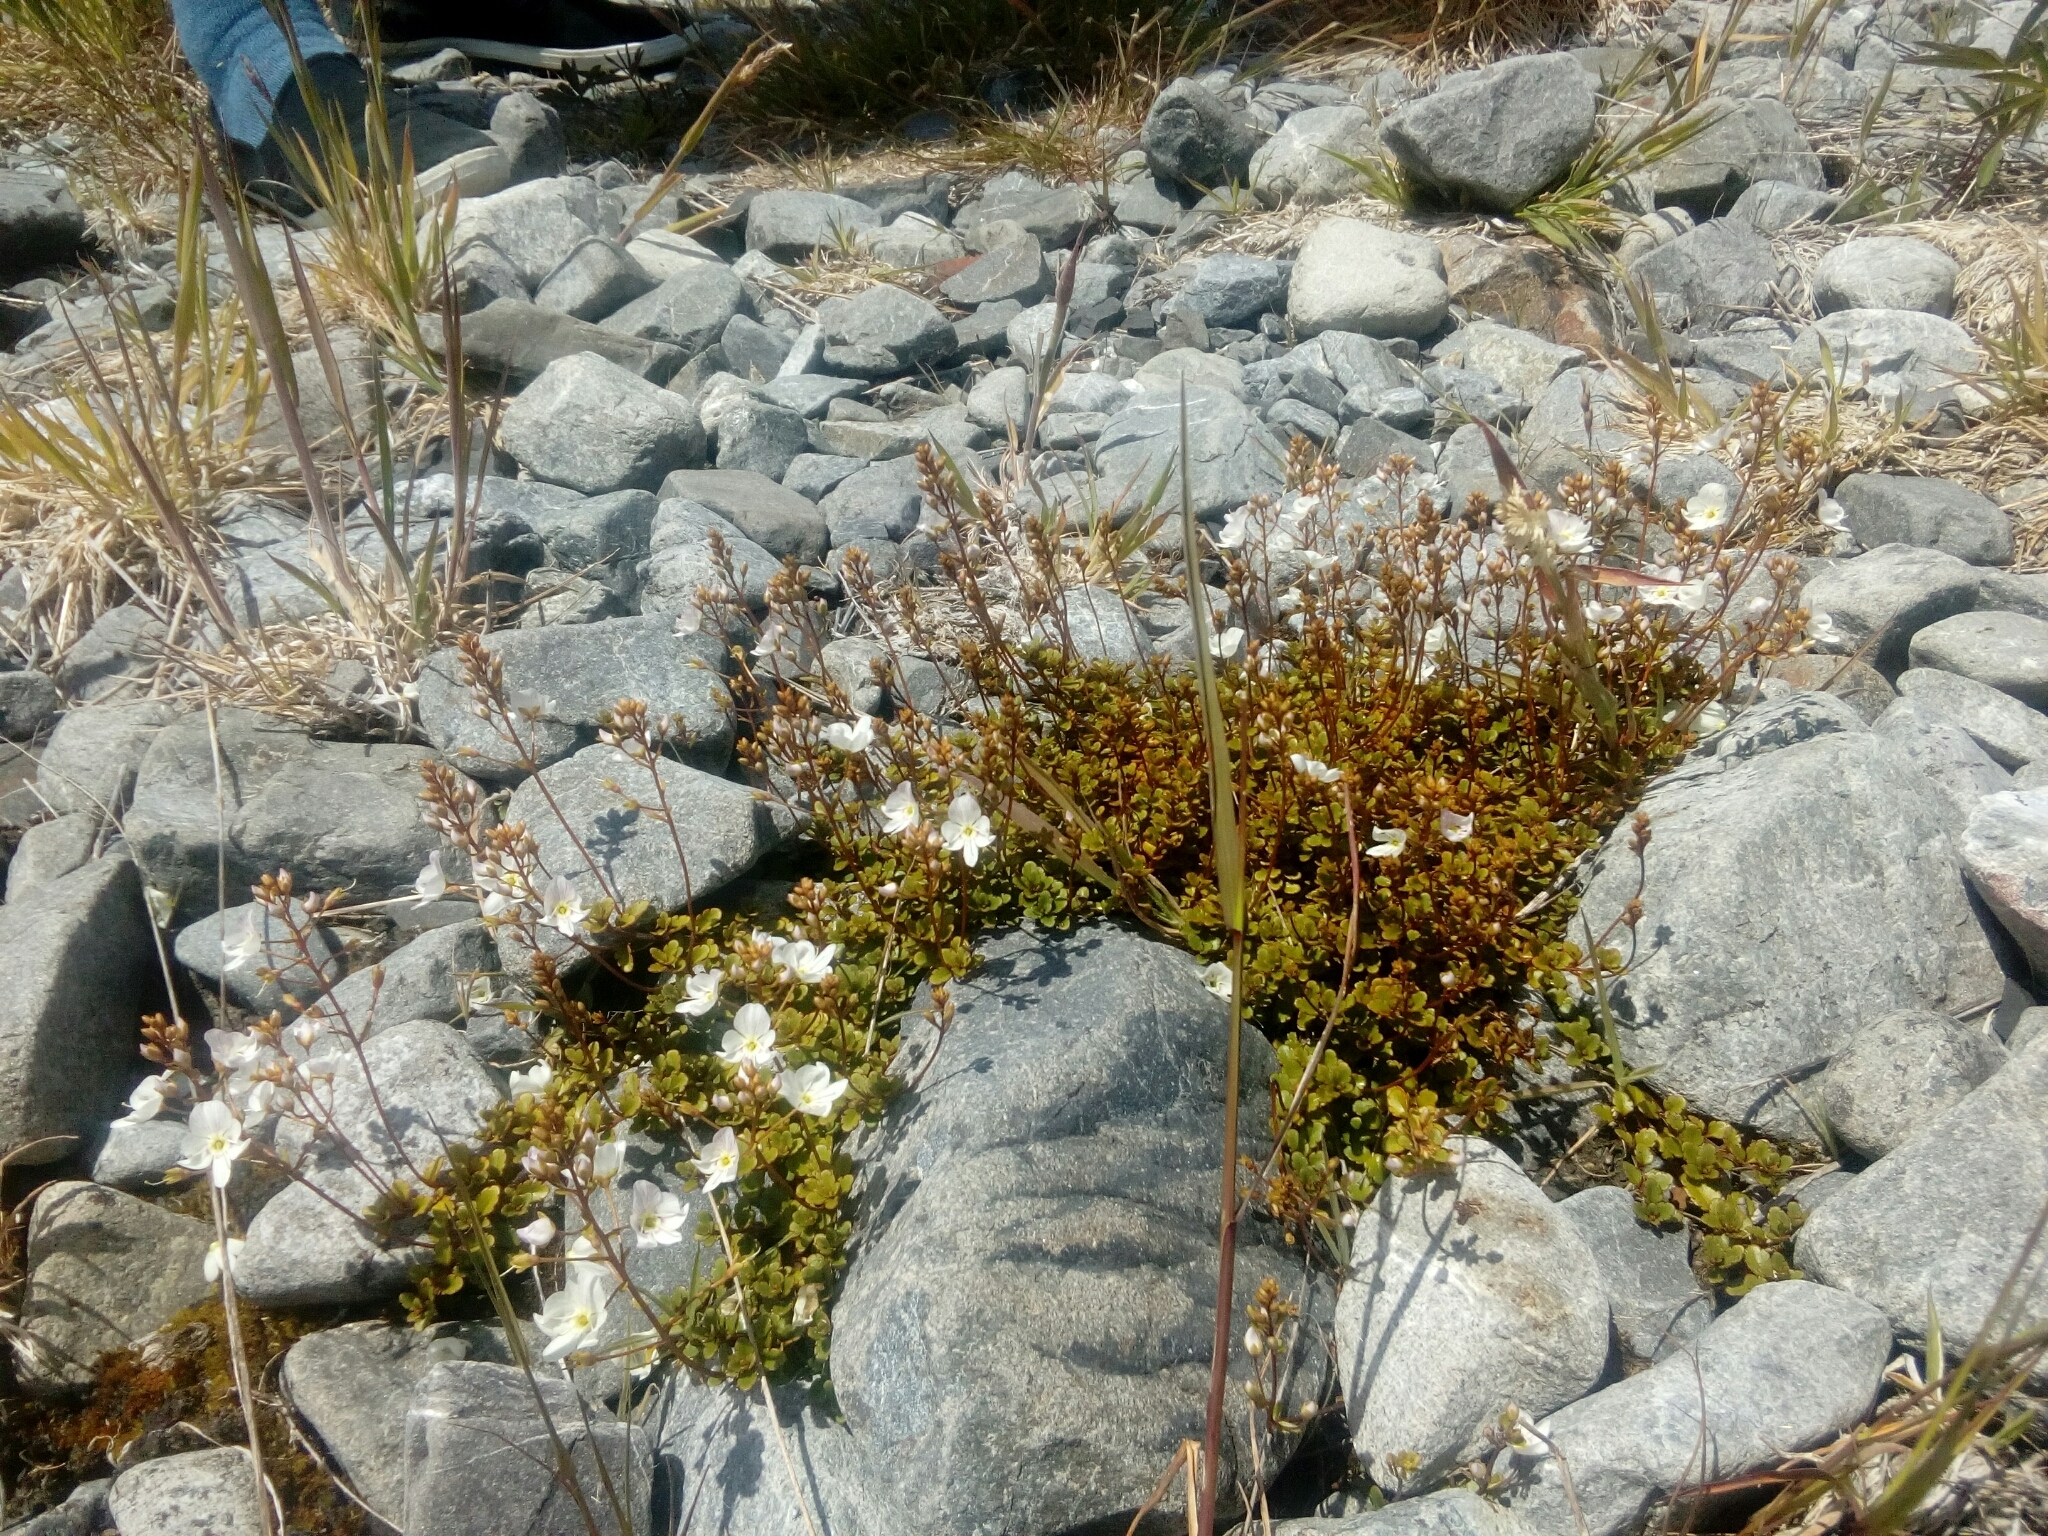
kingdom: Plantae
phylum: Tracheophyta
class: Magnoliopsida
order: Lamiales
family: Plantaginaceae
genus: Veronica
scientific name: Veronica lyallii
